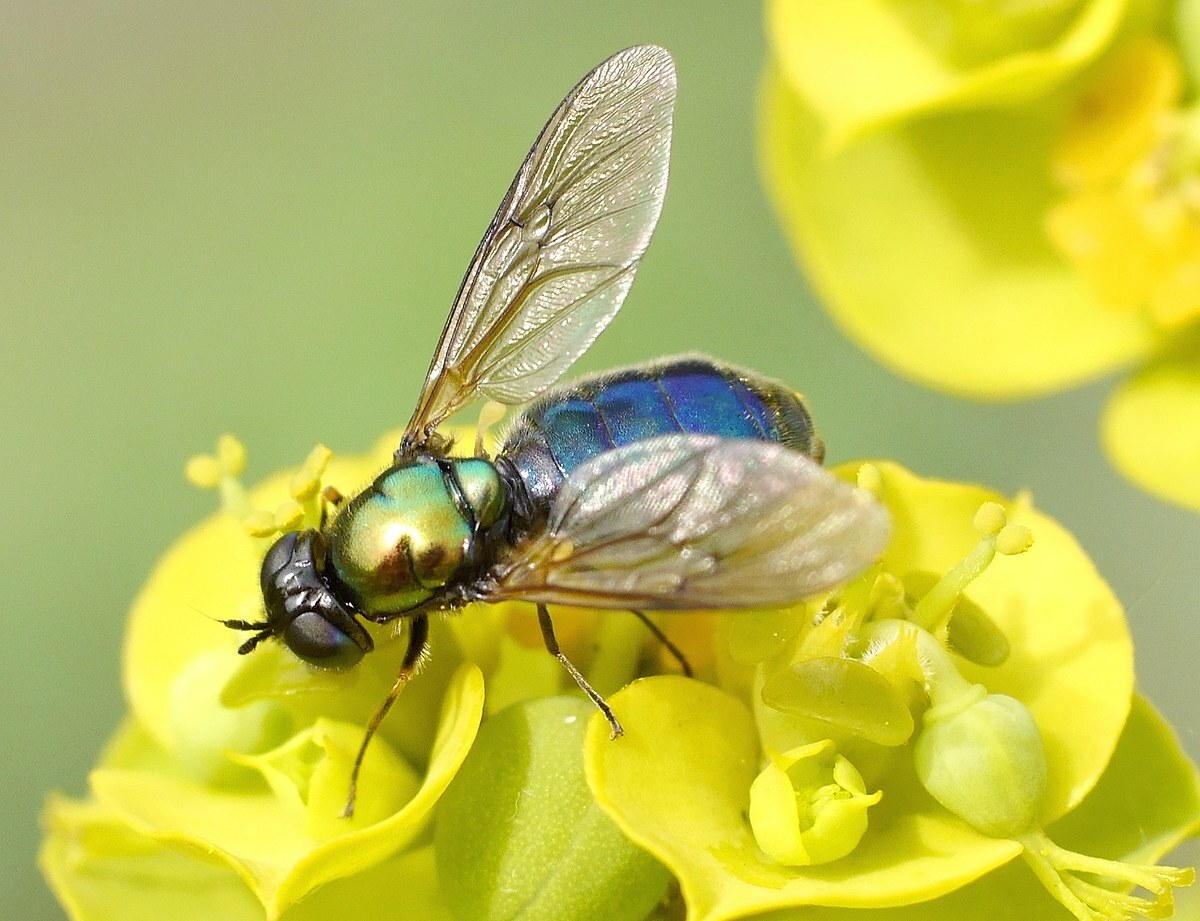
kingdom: Animalia
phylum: Arthropoda
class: Insecta
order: Diptera
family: Stratiomyidae
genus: Chloromyia
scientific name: Chloromyia formosa
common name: Soldier fly
